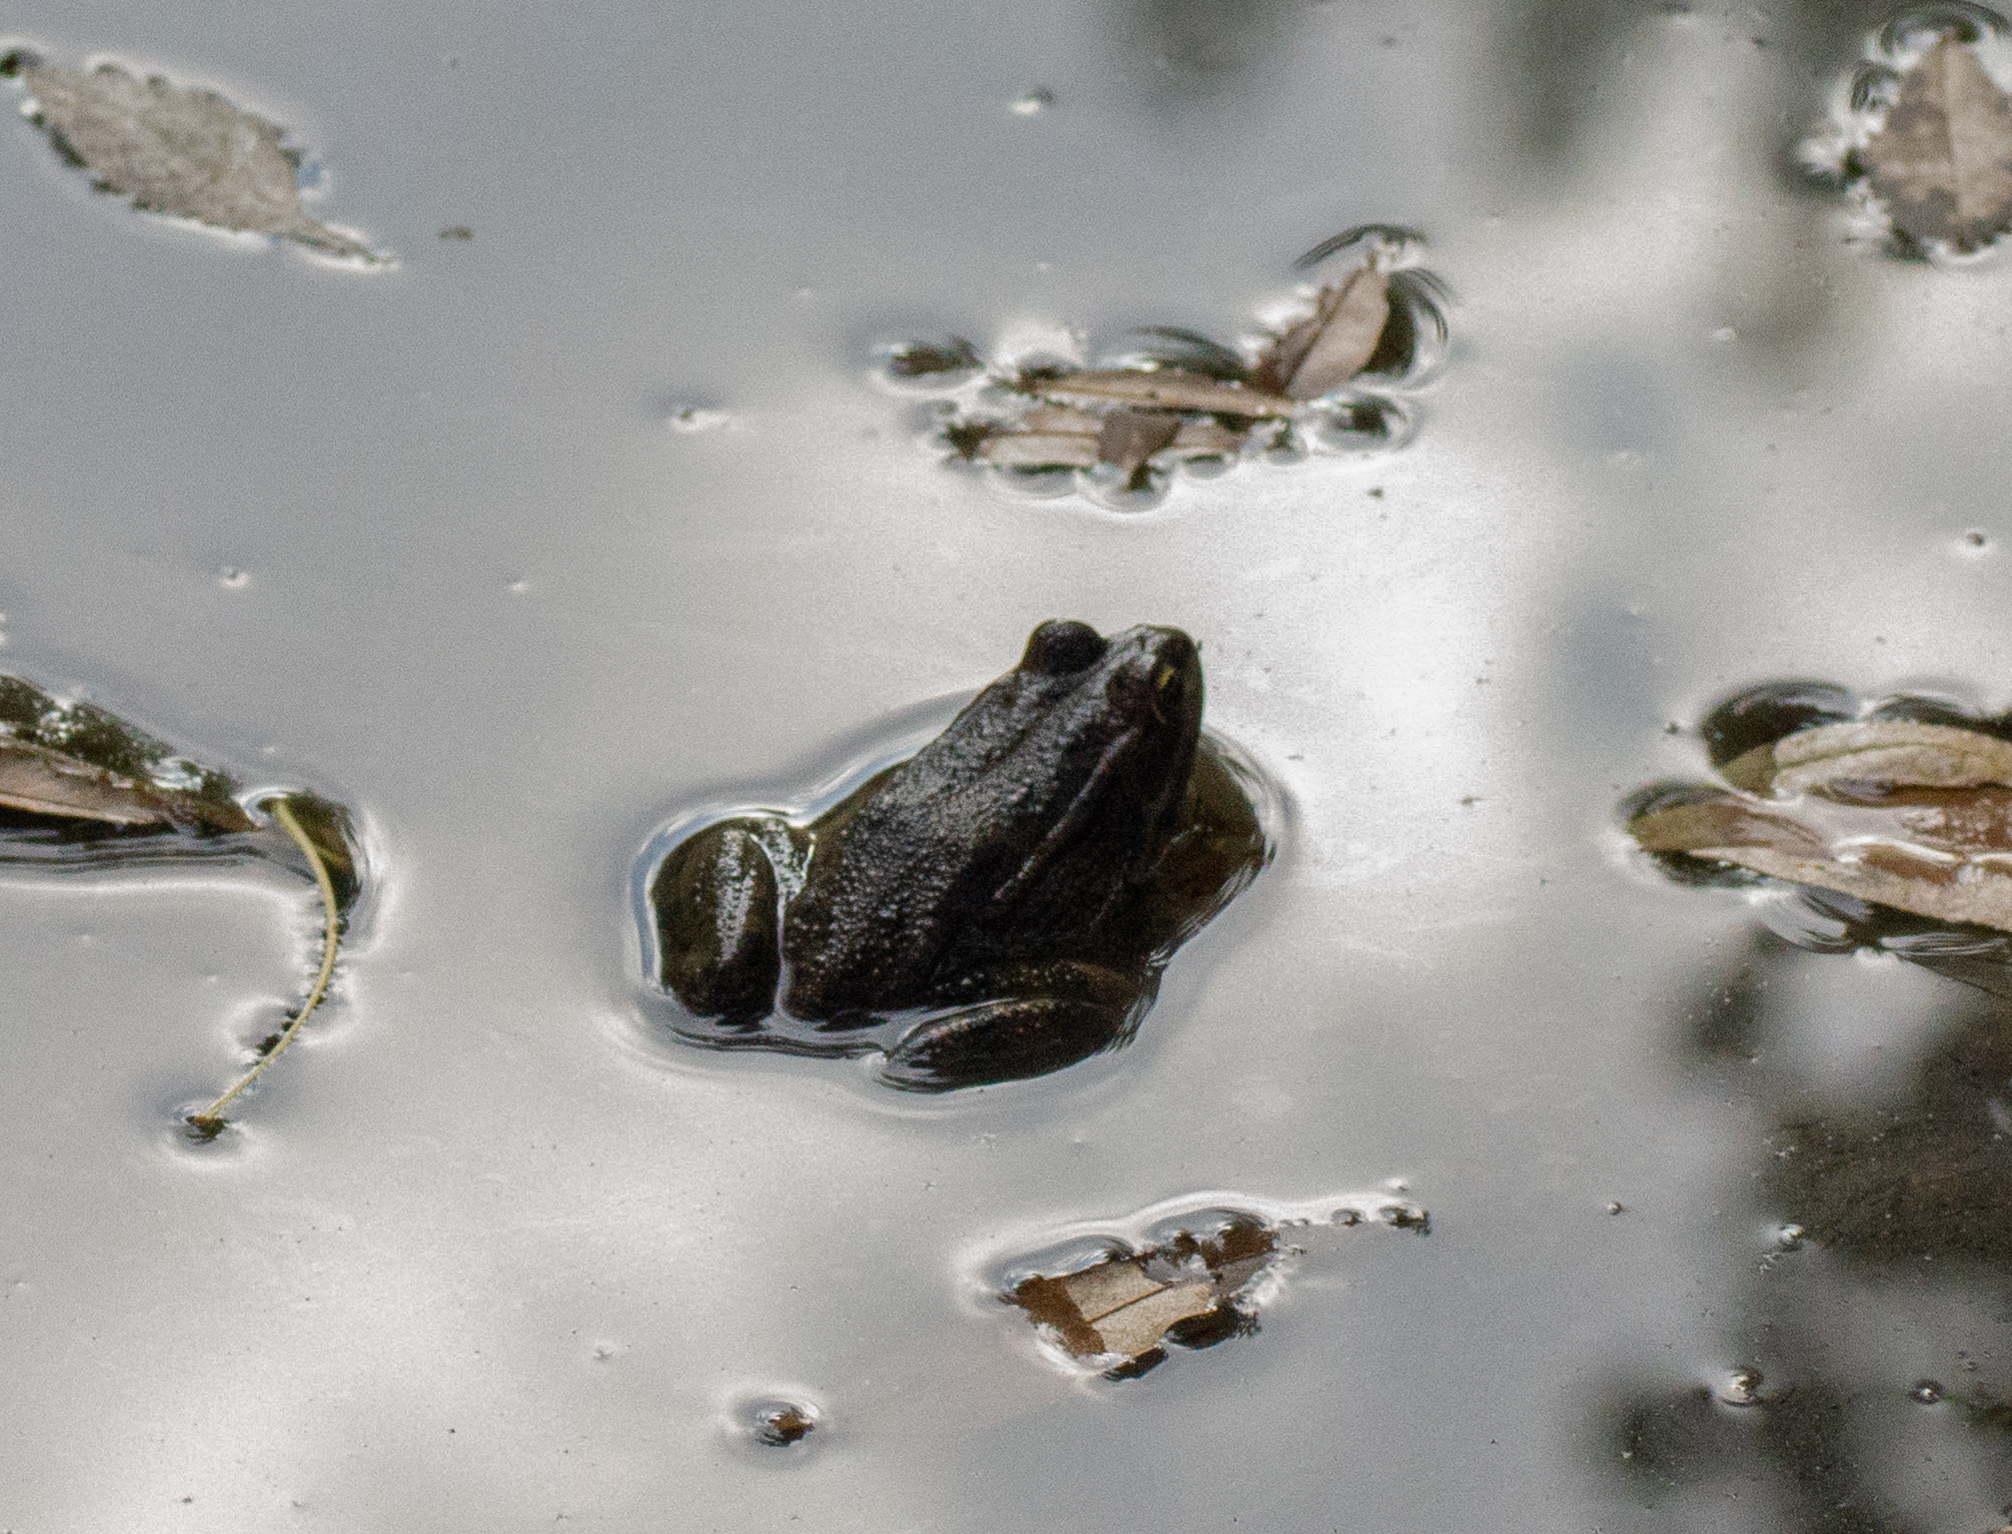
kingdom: Animalia
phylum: Chordata
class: Amphibia
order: Anura
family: Ranidae
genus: Pelophylax
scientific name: Pelophylax perezi
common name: Perez's frog
